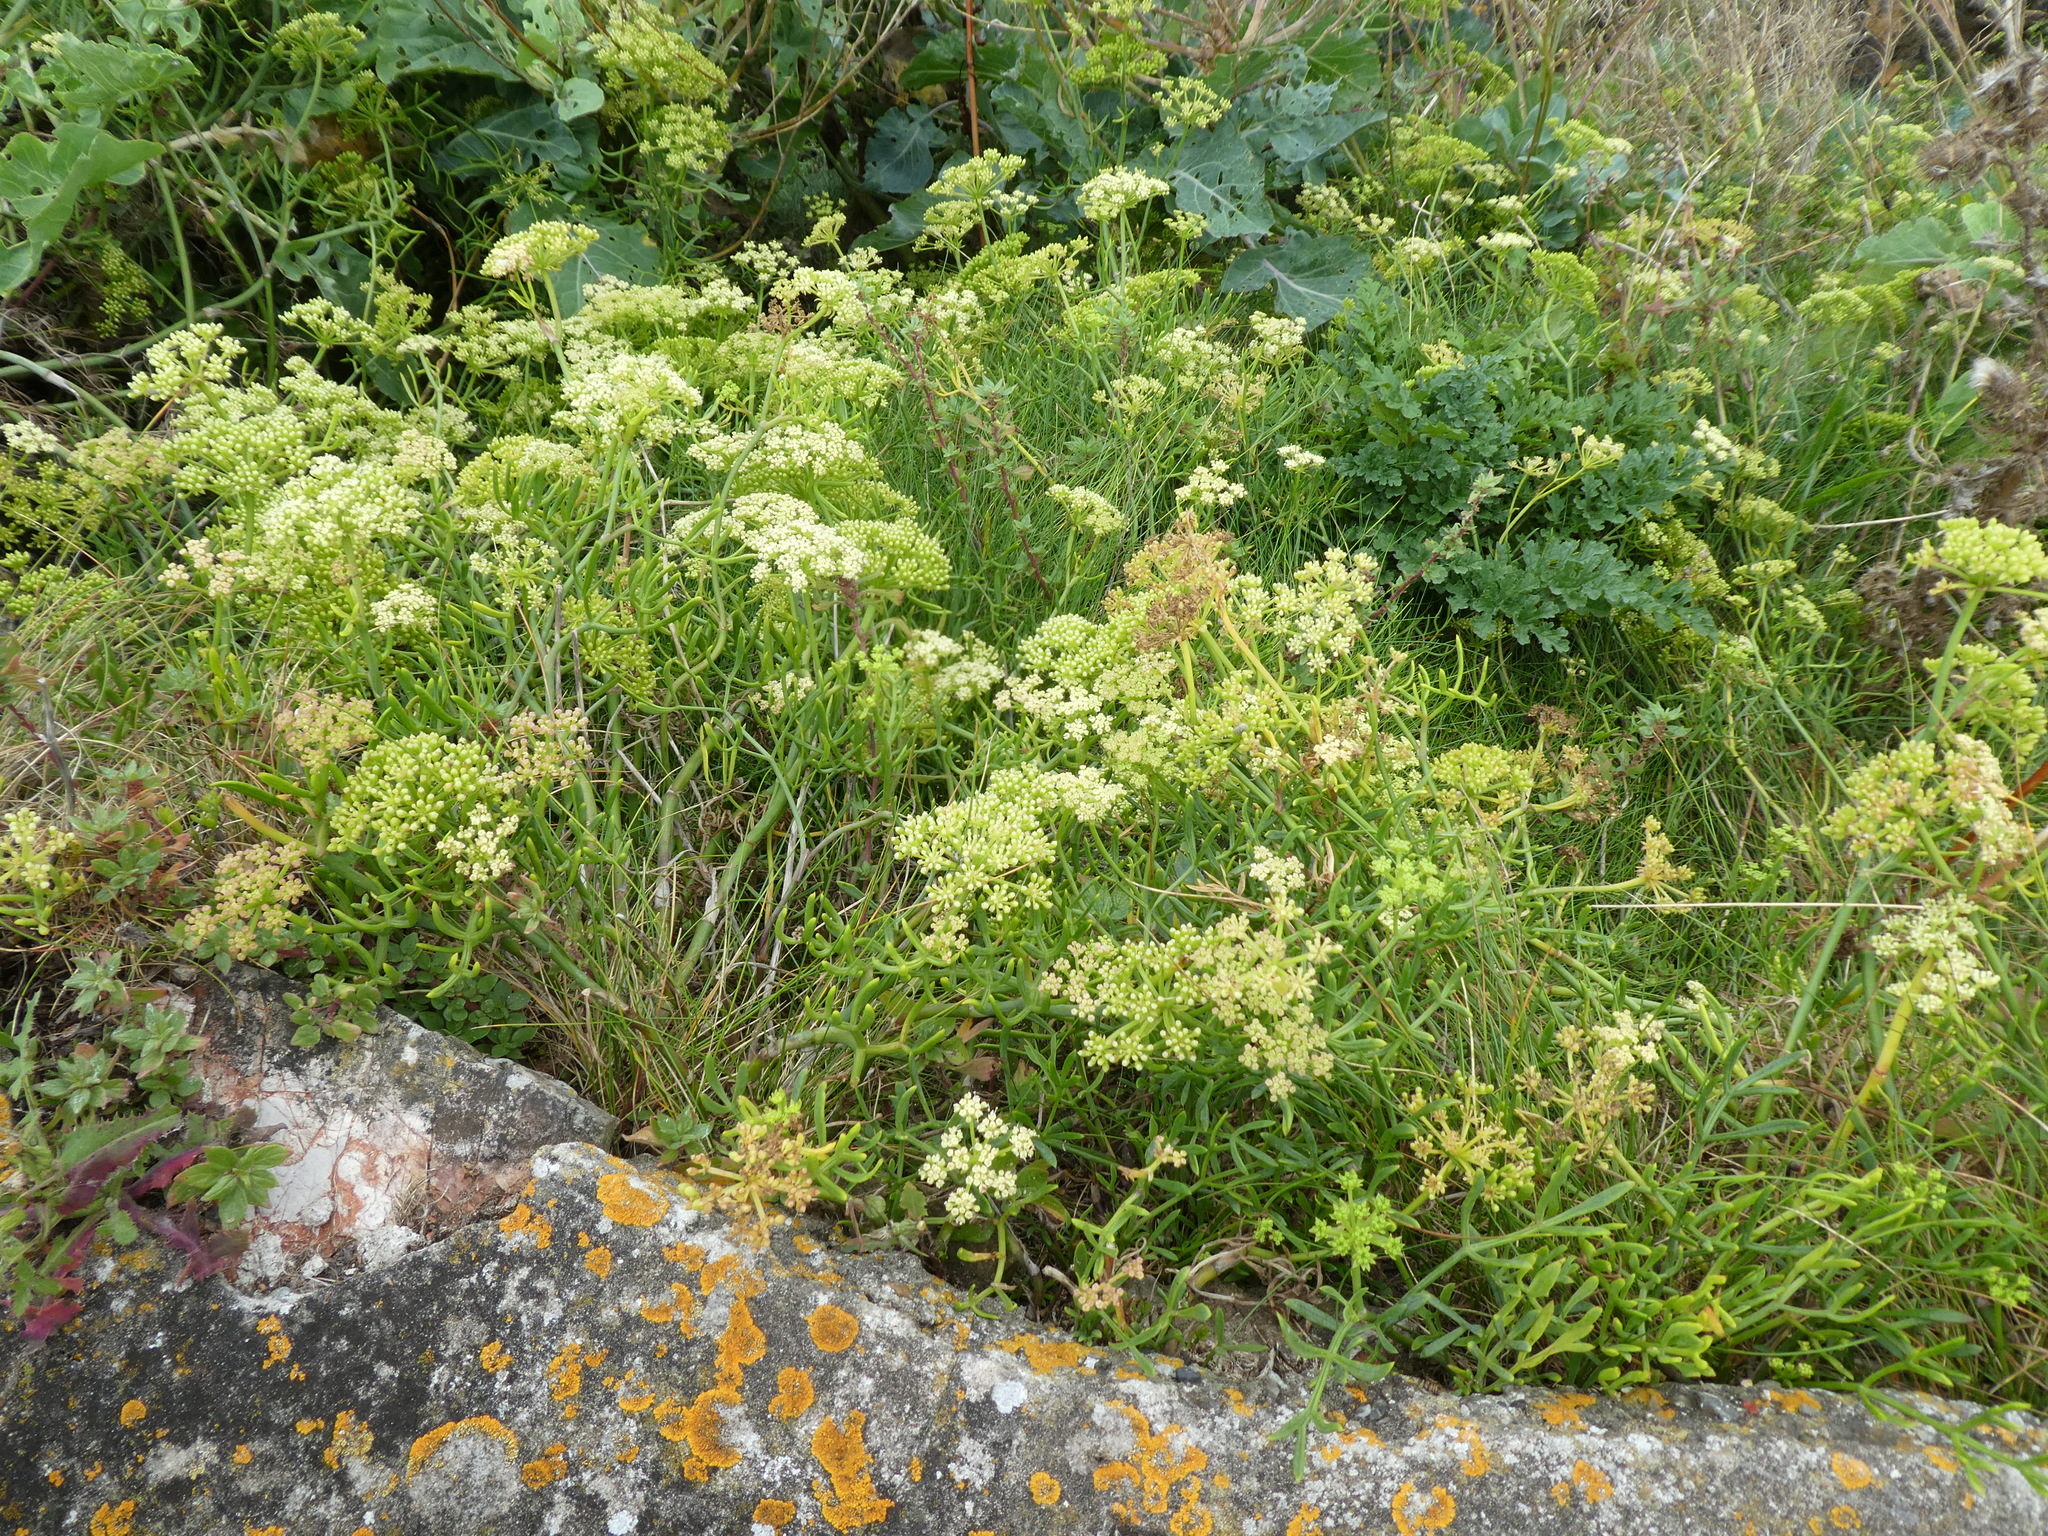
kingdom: Plantae
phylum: Tracheophyta
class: Magnoliopsida
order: Apiales
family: Apiaceae
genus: Crithmum
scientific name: Crithmum maritimum
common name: Rock samphire
